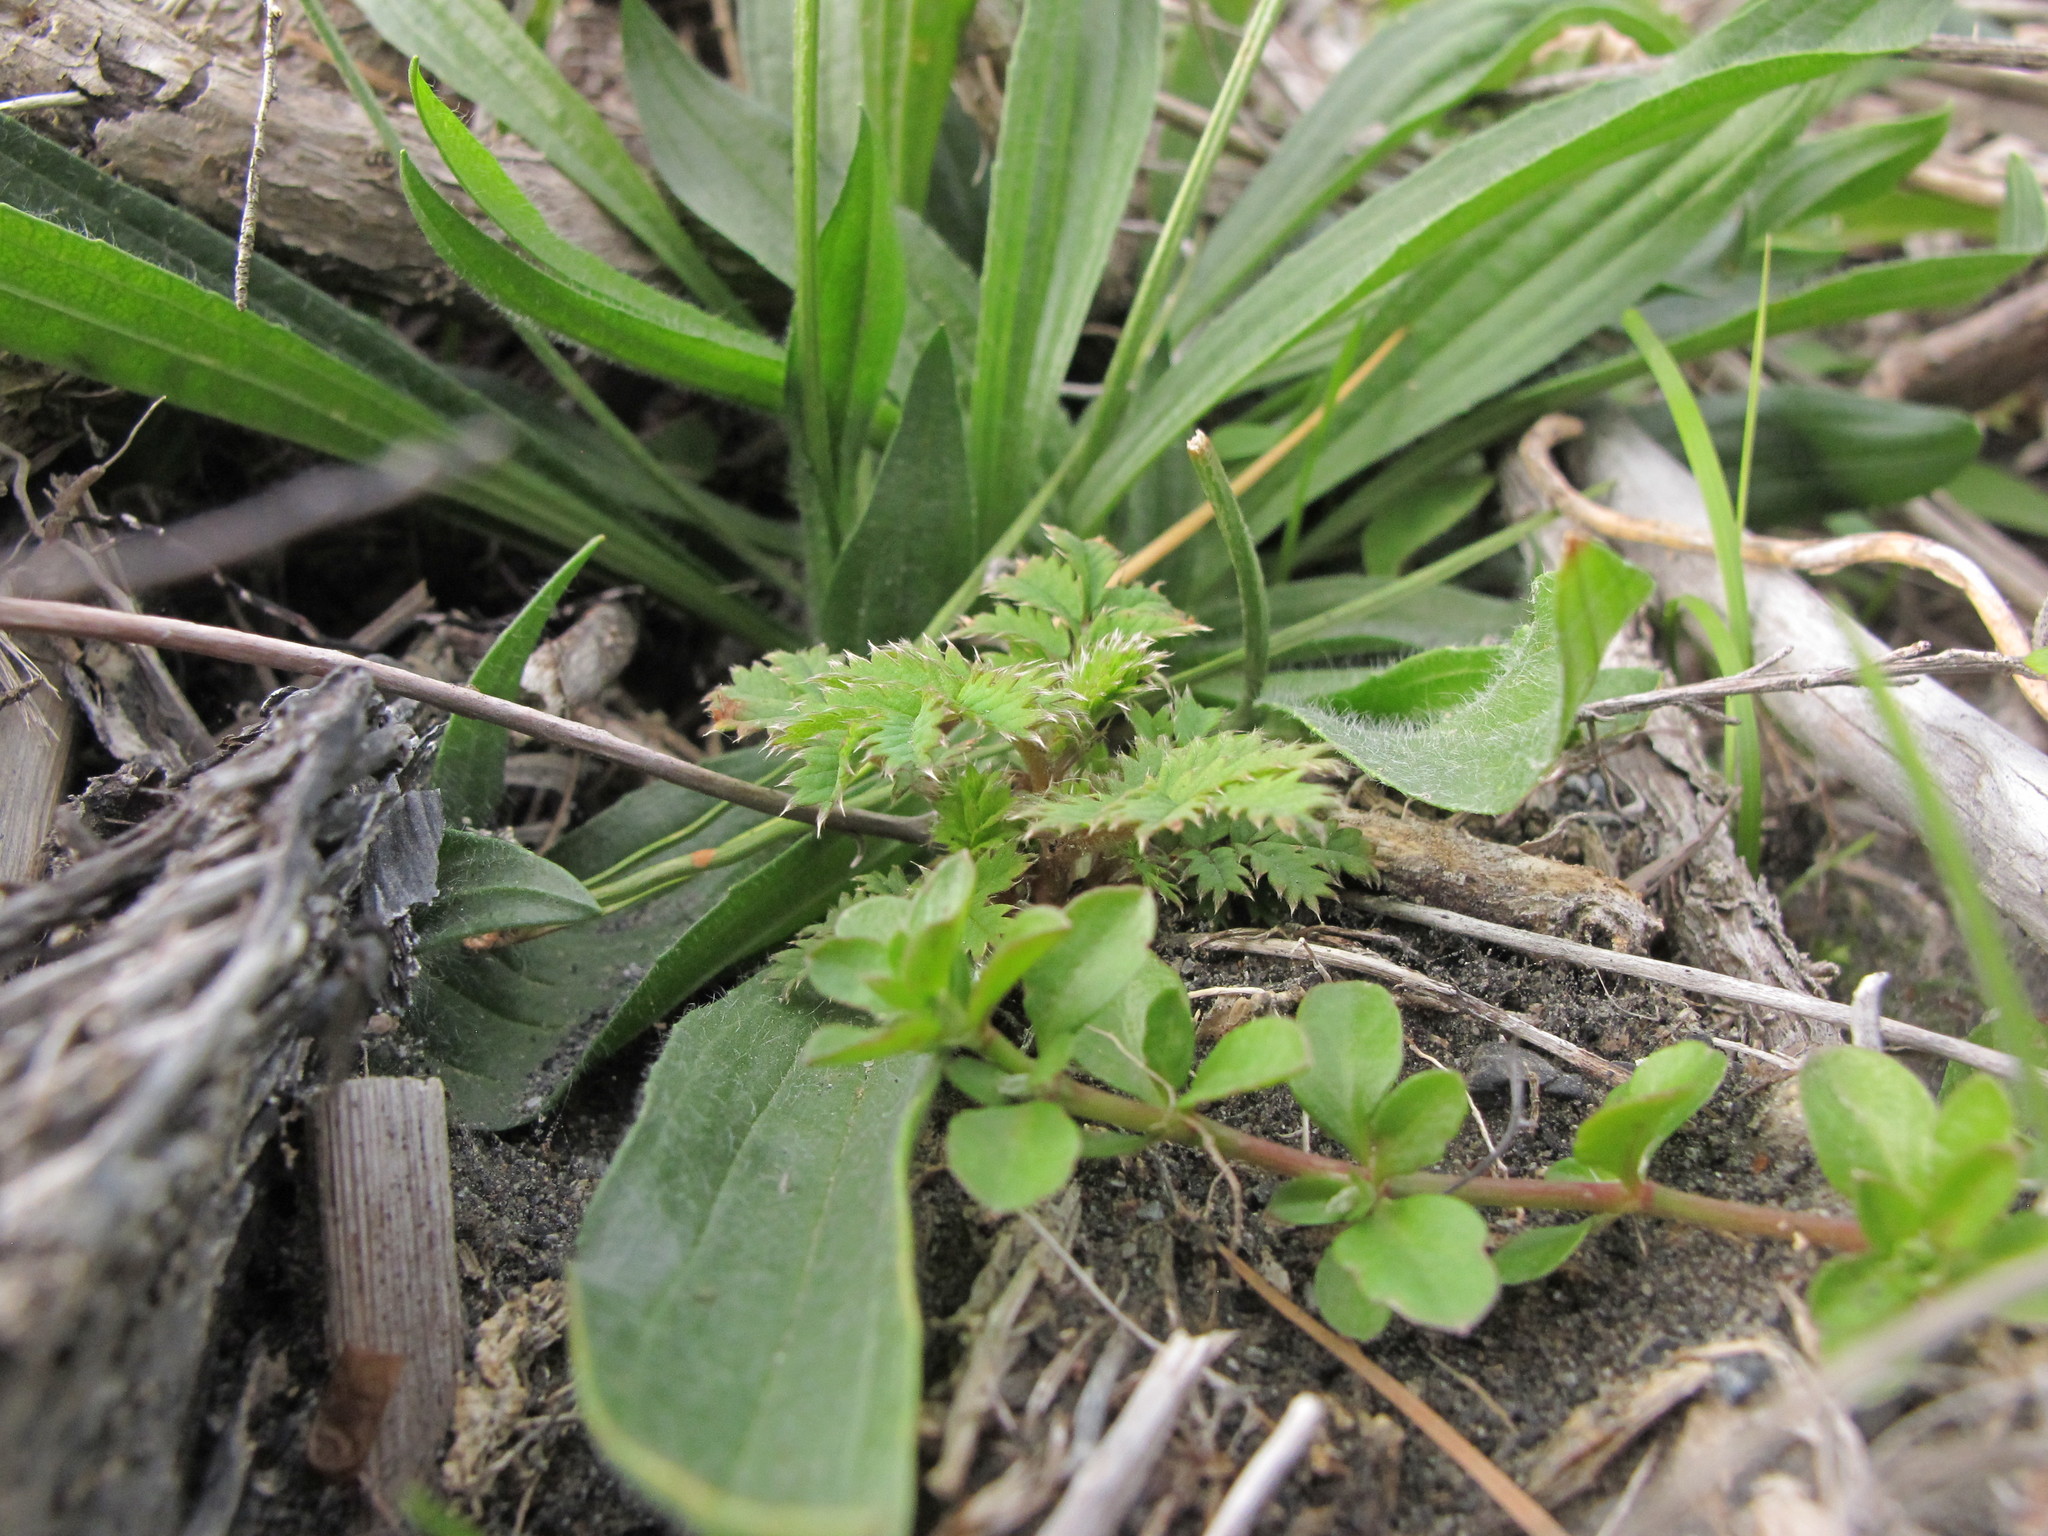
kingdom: Plantae
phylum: Tracheophyta
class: Magnoliopsida
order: Rosales
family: Rosaceae
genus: Acaena
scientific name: Acaena anserinifolia
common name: Bronze pirri-pirri-bur
